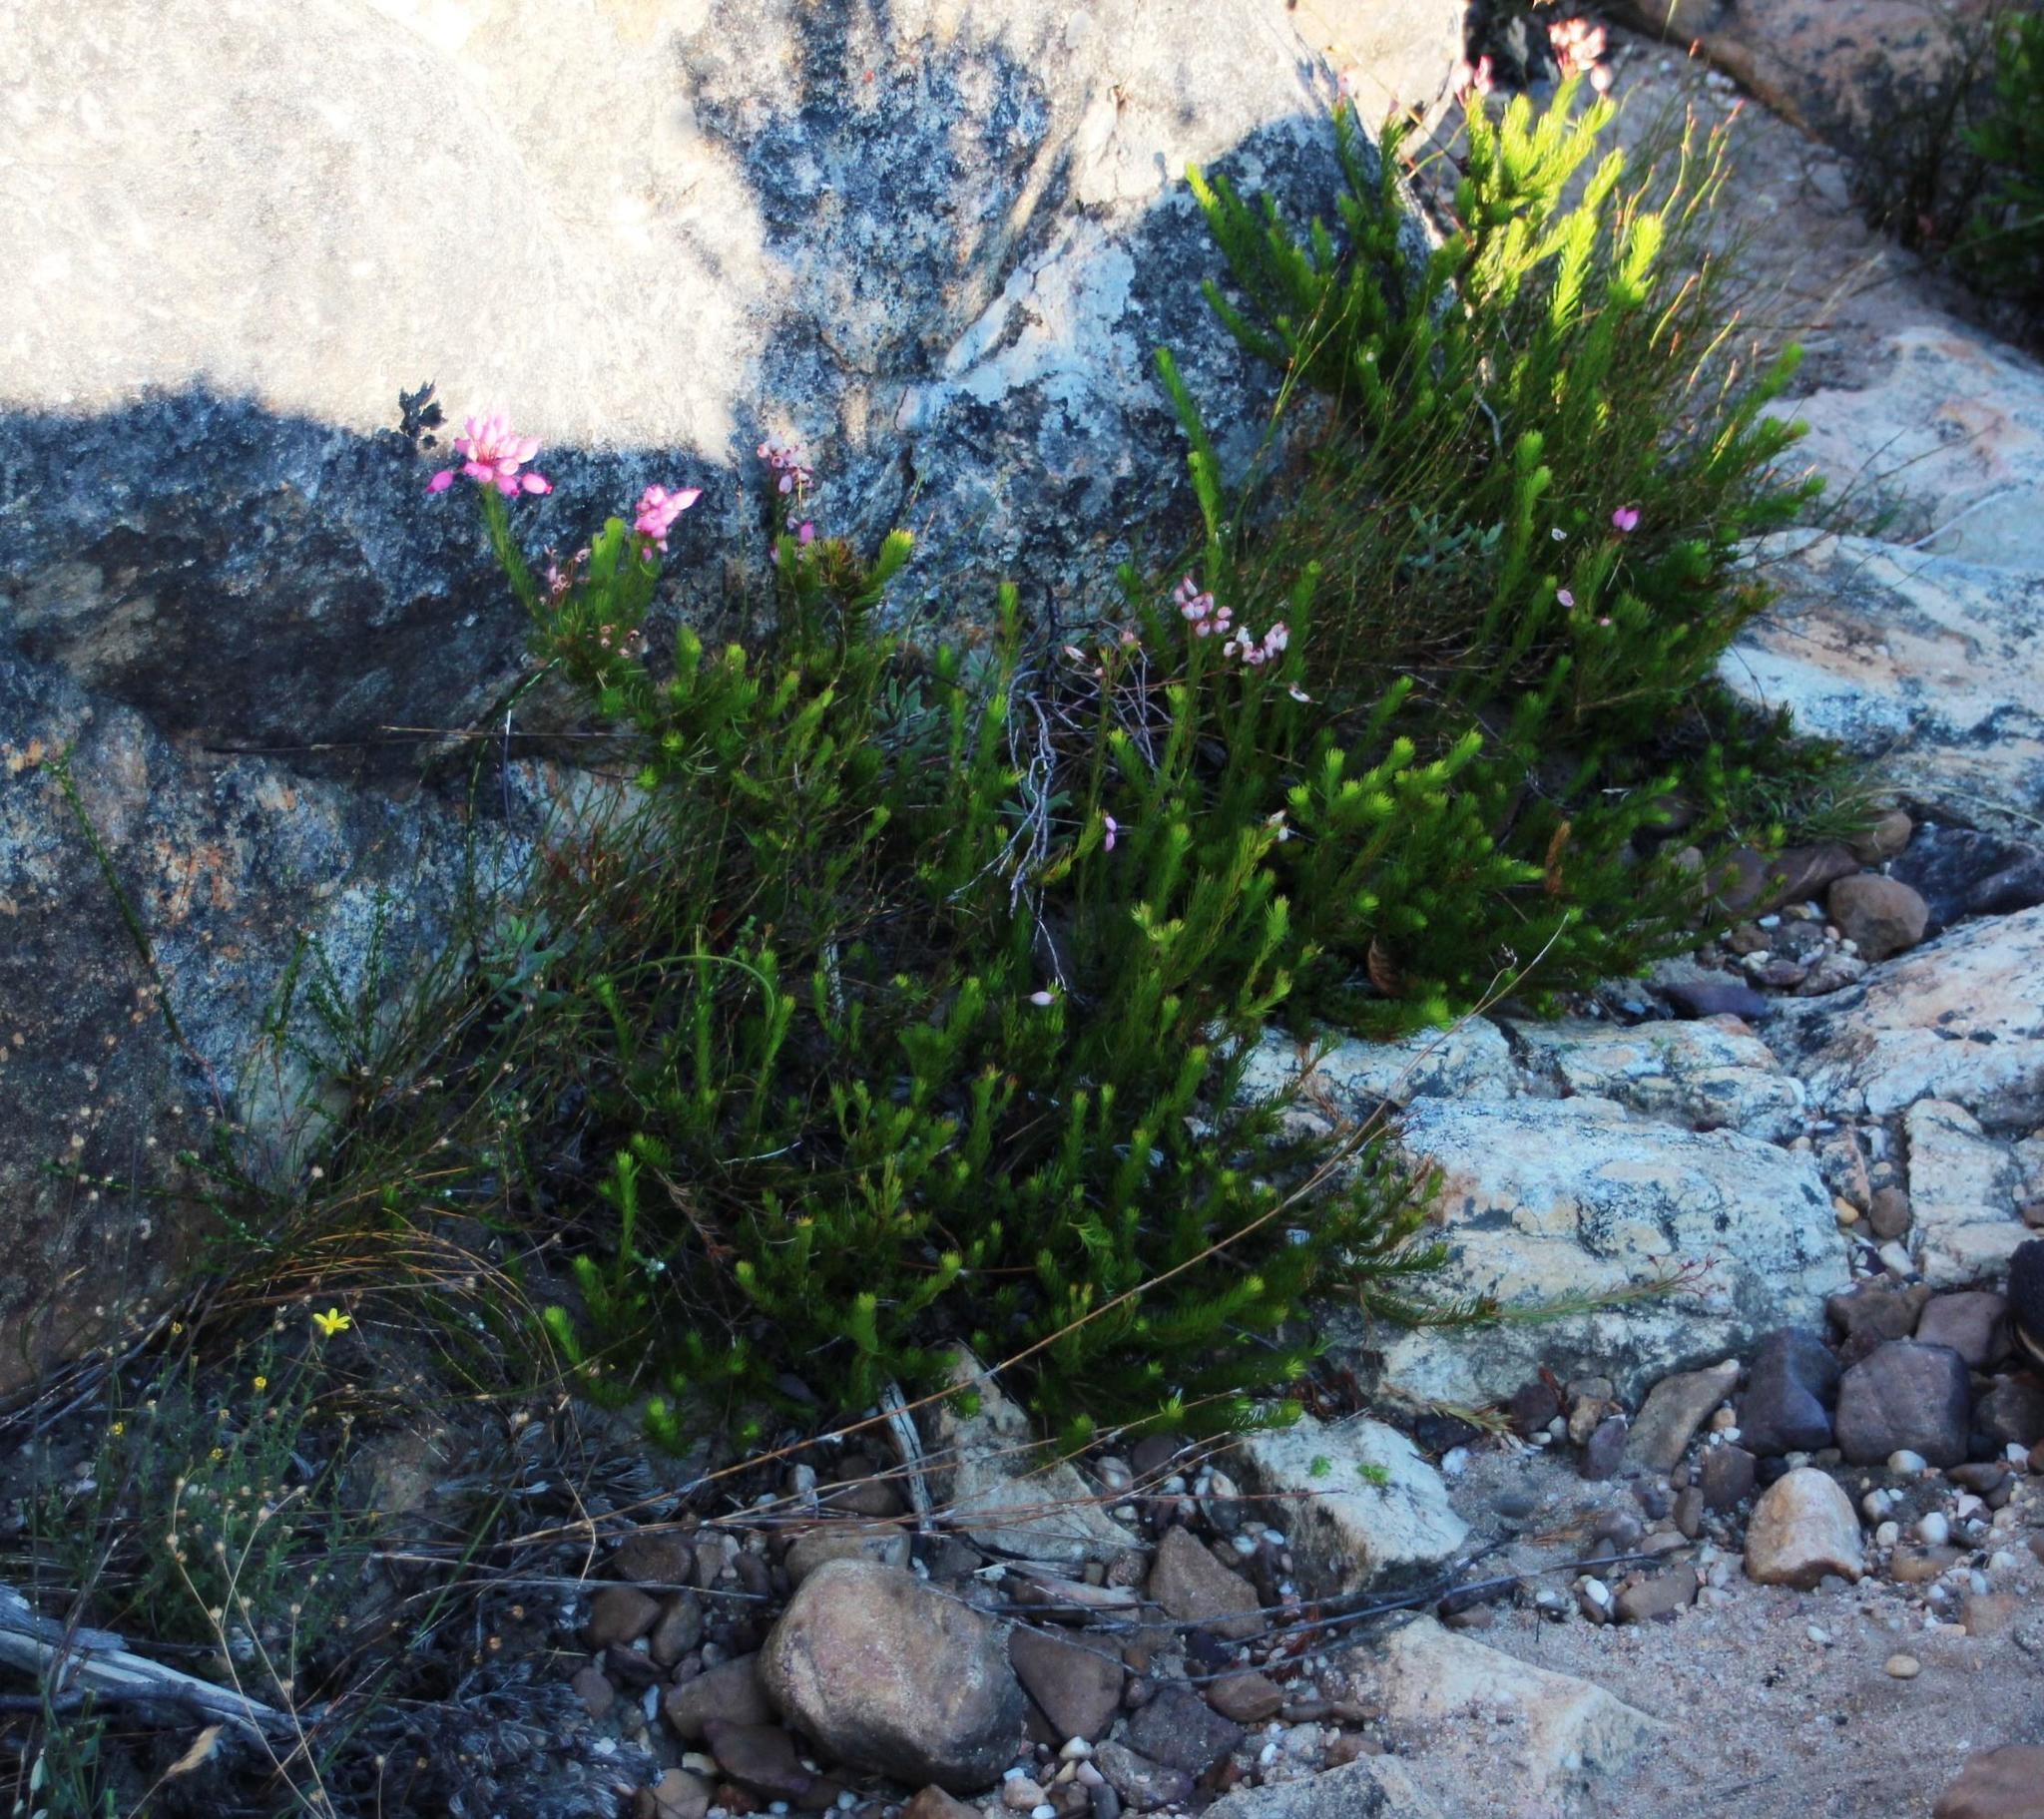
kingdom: Plantae
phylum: Tracheophyta
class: Magnoliopsida
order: Ericales
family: Ericaceae
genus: Erica
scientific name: Erica inflata
